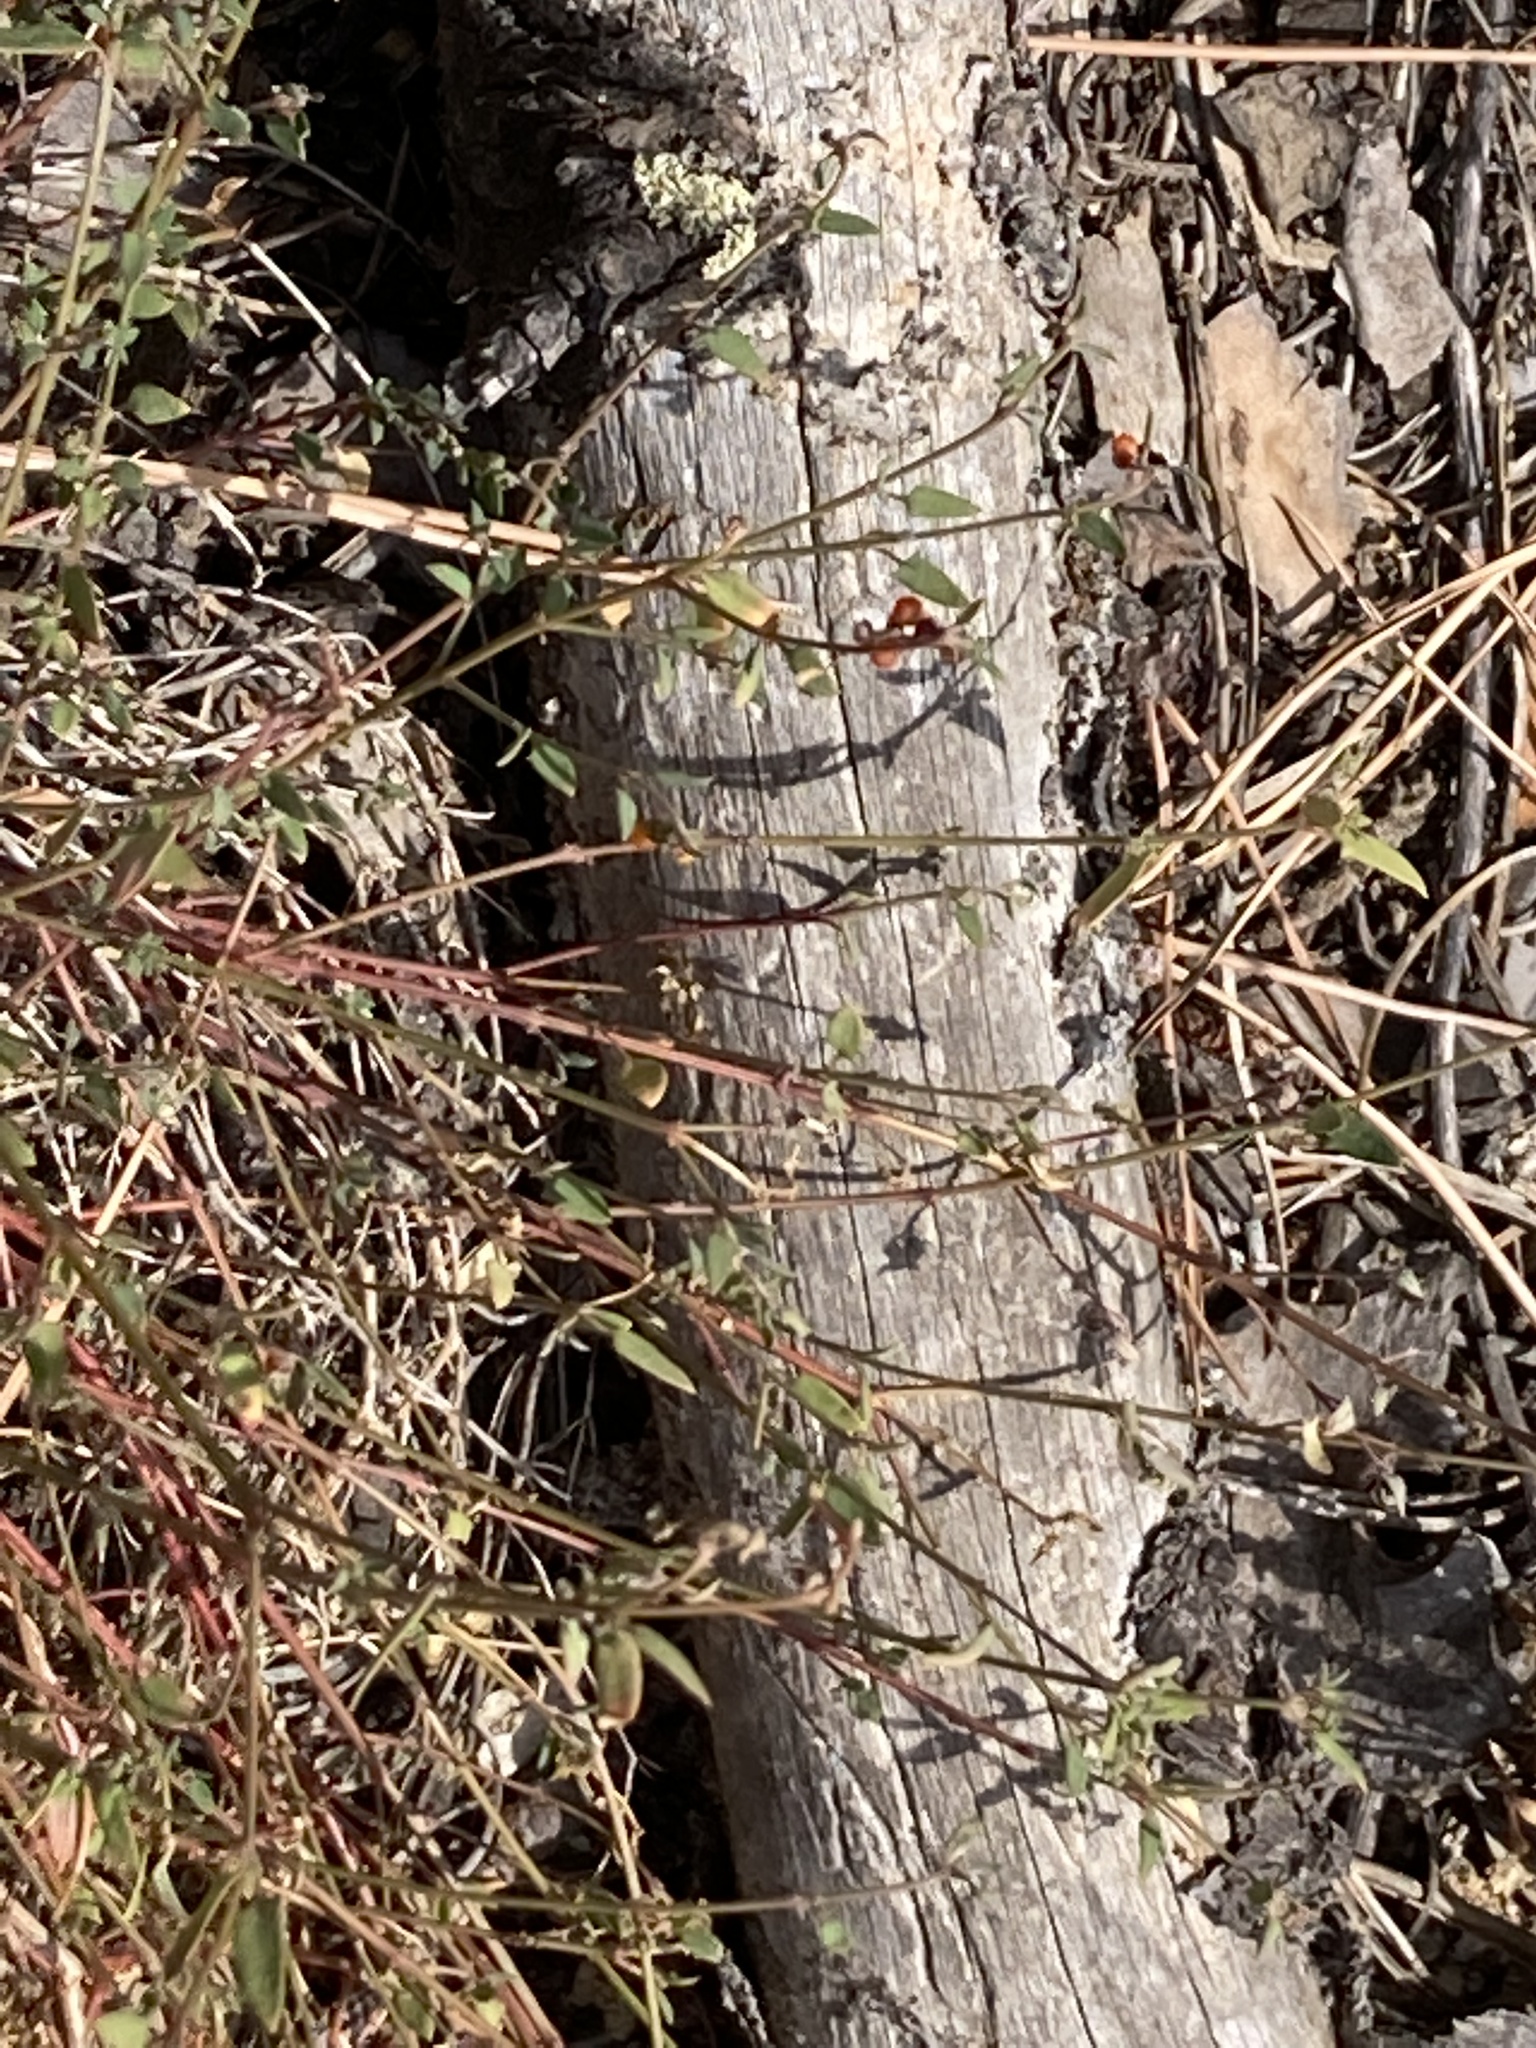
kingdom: Plantae
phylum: Tracheophyta
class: Magnoliopsida
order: Caryophyllales
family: Amaranthaceae
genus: Chenopodium
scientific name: Chenopodium nutans
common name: Climbing-saltbush
